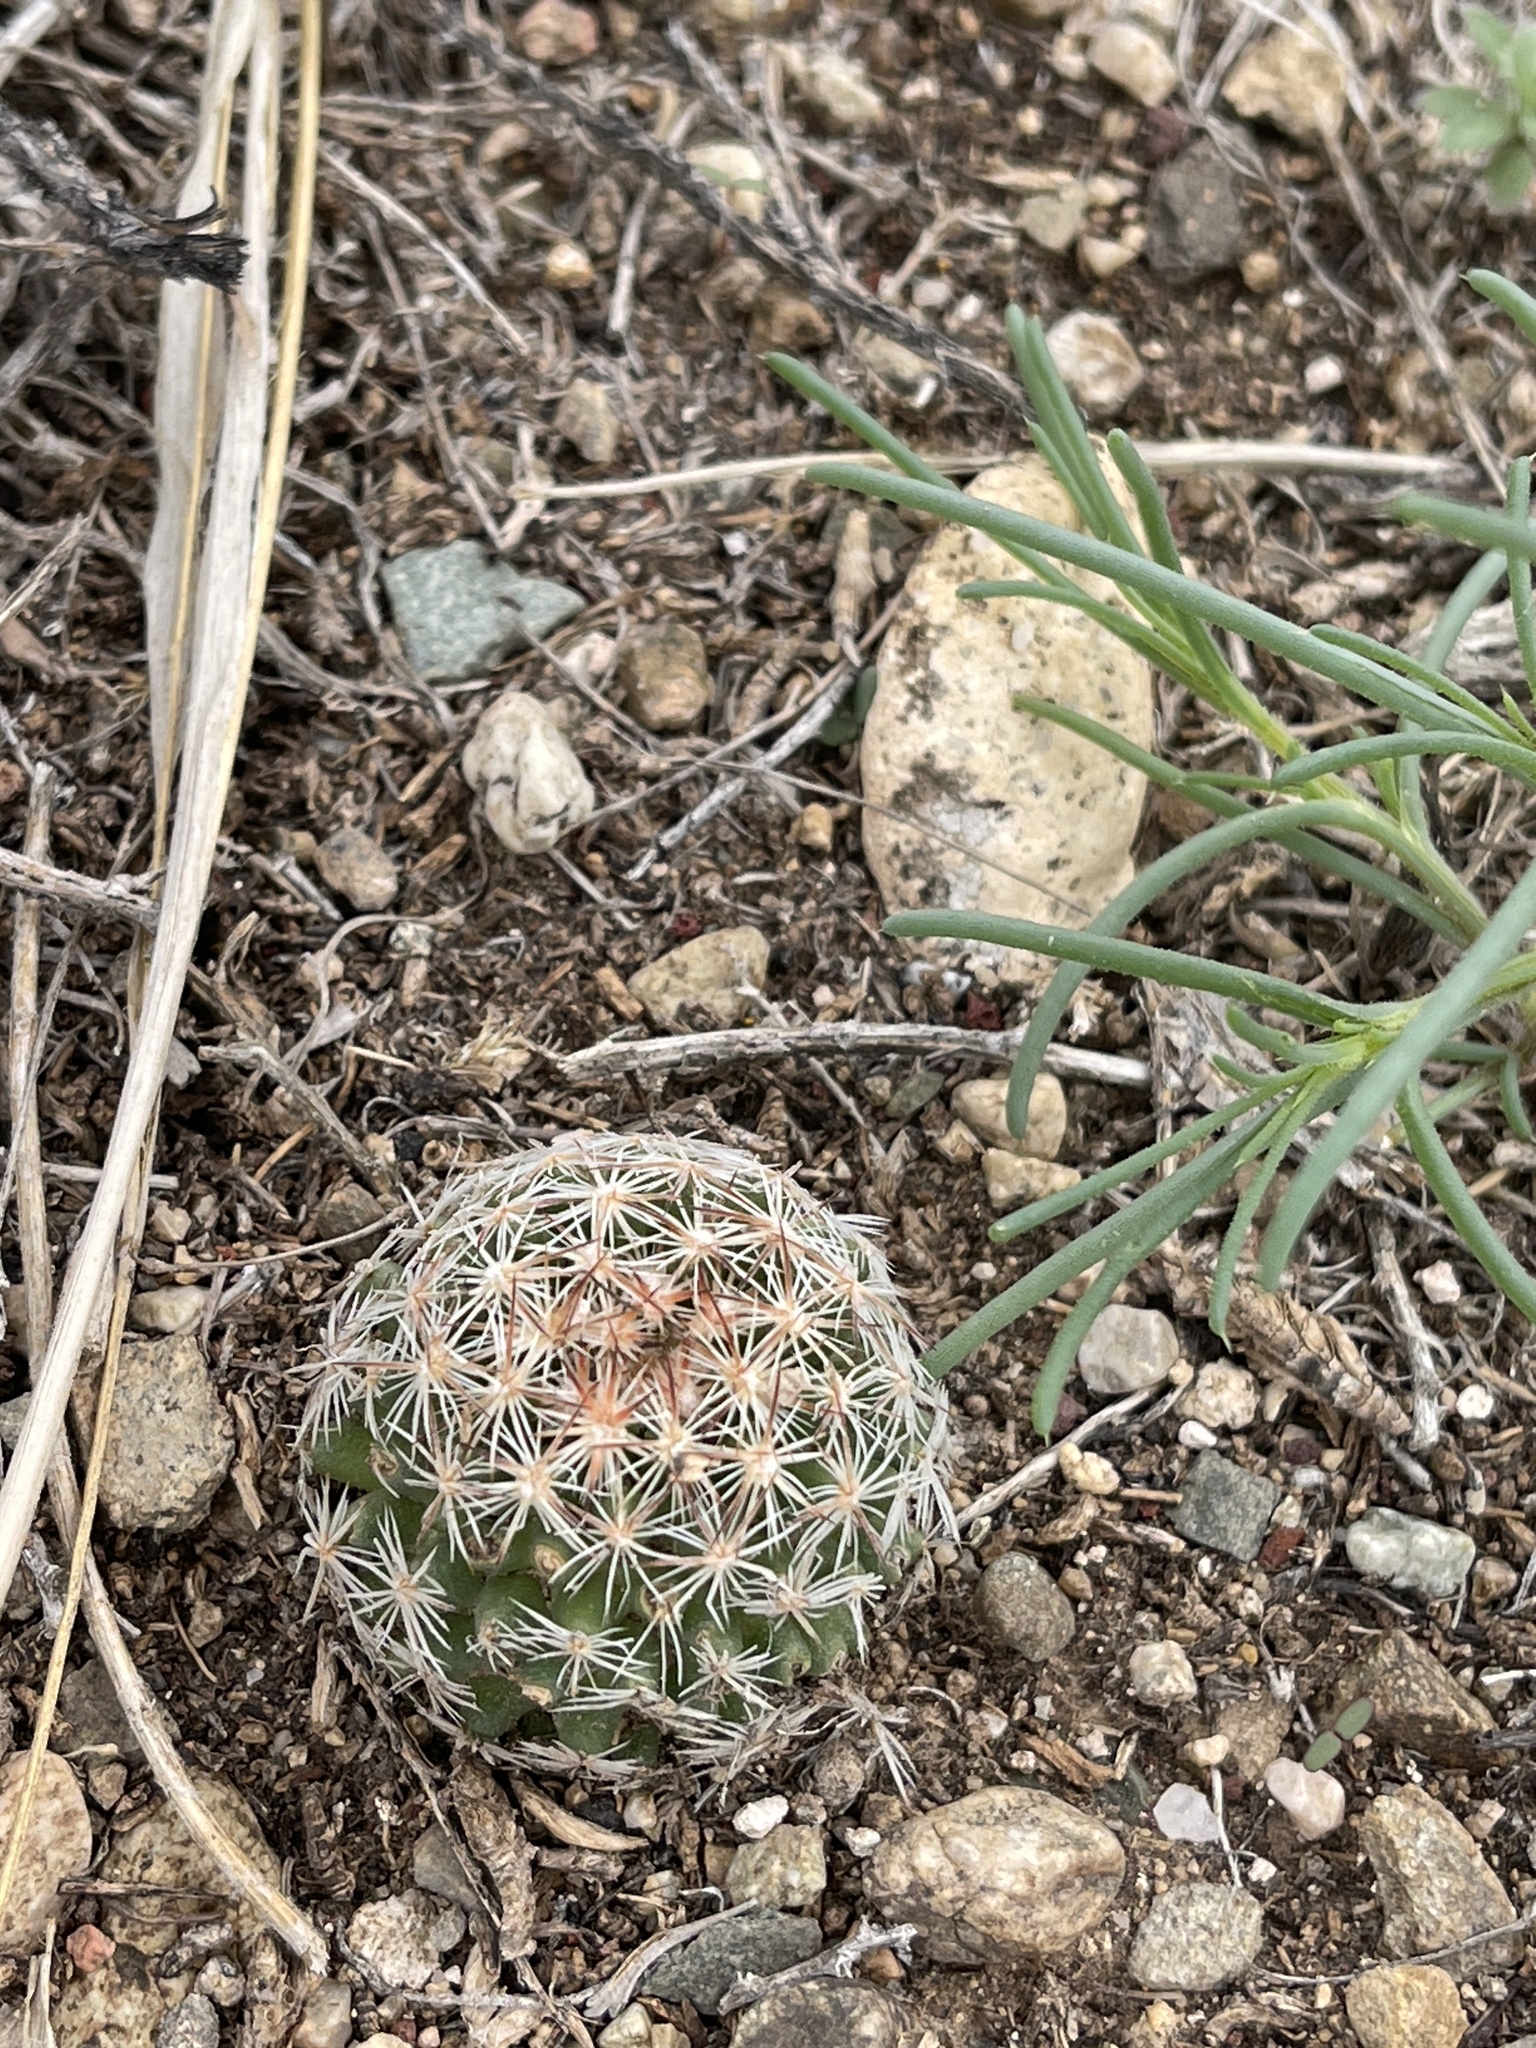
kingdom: Plantae
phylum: Tracheophyta
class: Magnoliopsida
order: Caryophyllales
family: Cactaceae
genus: Pelecyphora
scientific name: Pelecyphora vivipara
